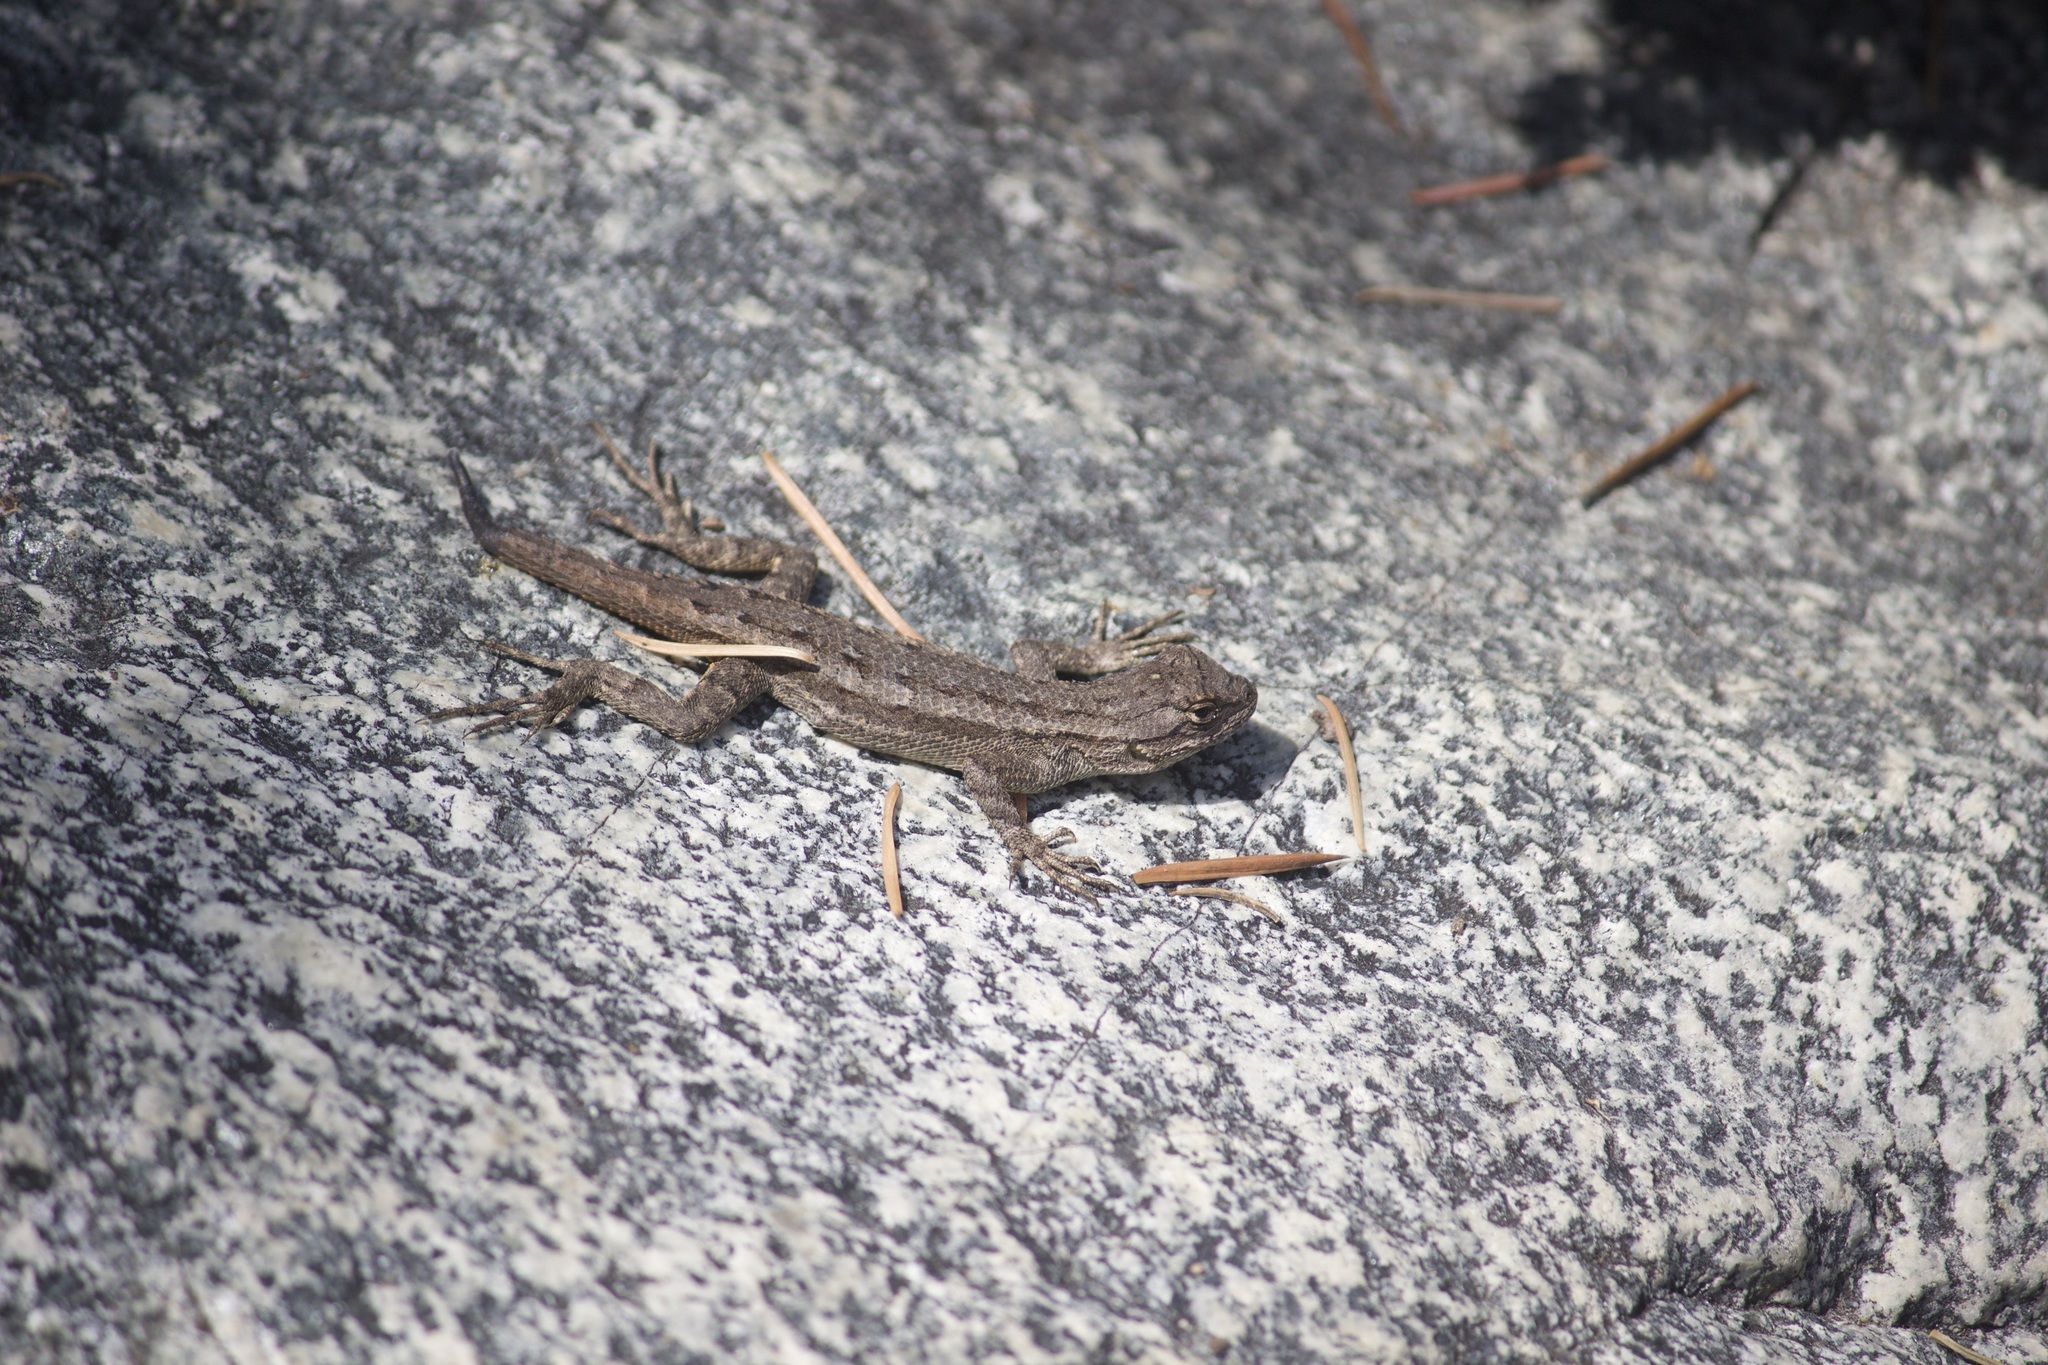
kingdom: Animalia
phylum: Chordata
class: Squamata
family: Phrynosomatidae
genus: Sceloporus
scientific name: Sceloporus occidentalis
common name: Western fence lizard
